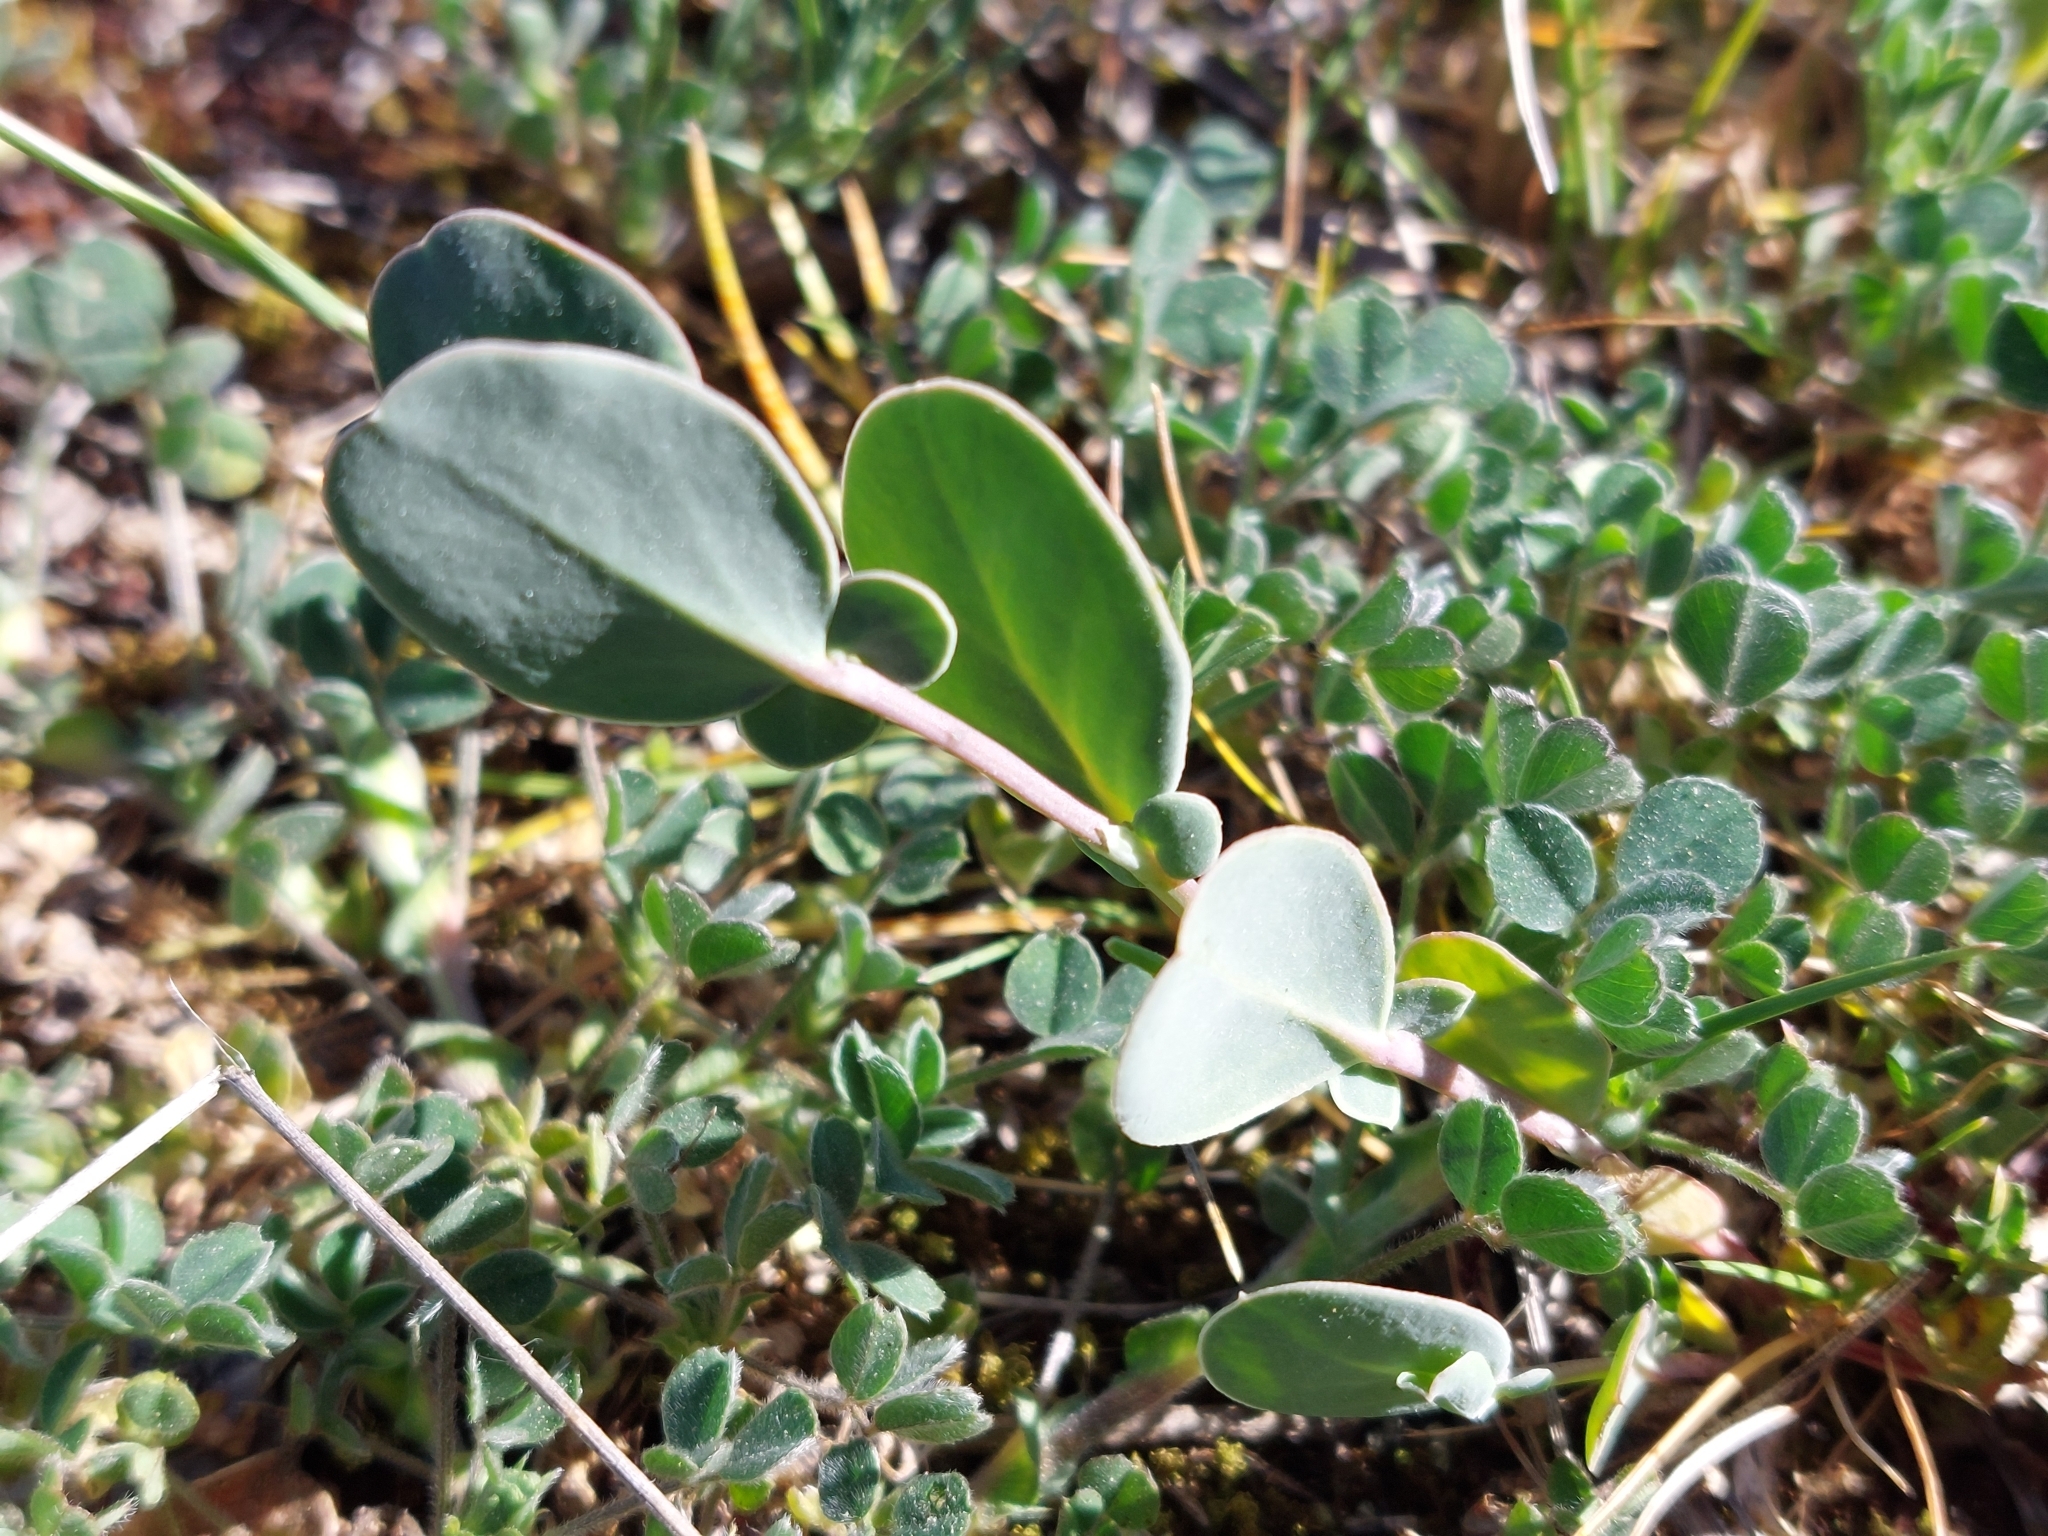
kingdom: Plantae
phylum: Tracheophyta
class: Magnoliopsida
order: Fabales
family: Fabaceae
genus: Coronilla
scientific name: Coronilla scorpioides
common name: Annual scorpion-vetch
